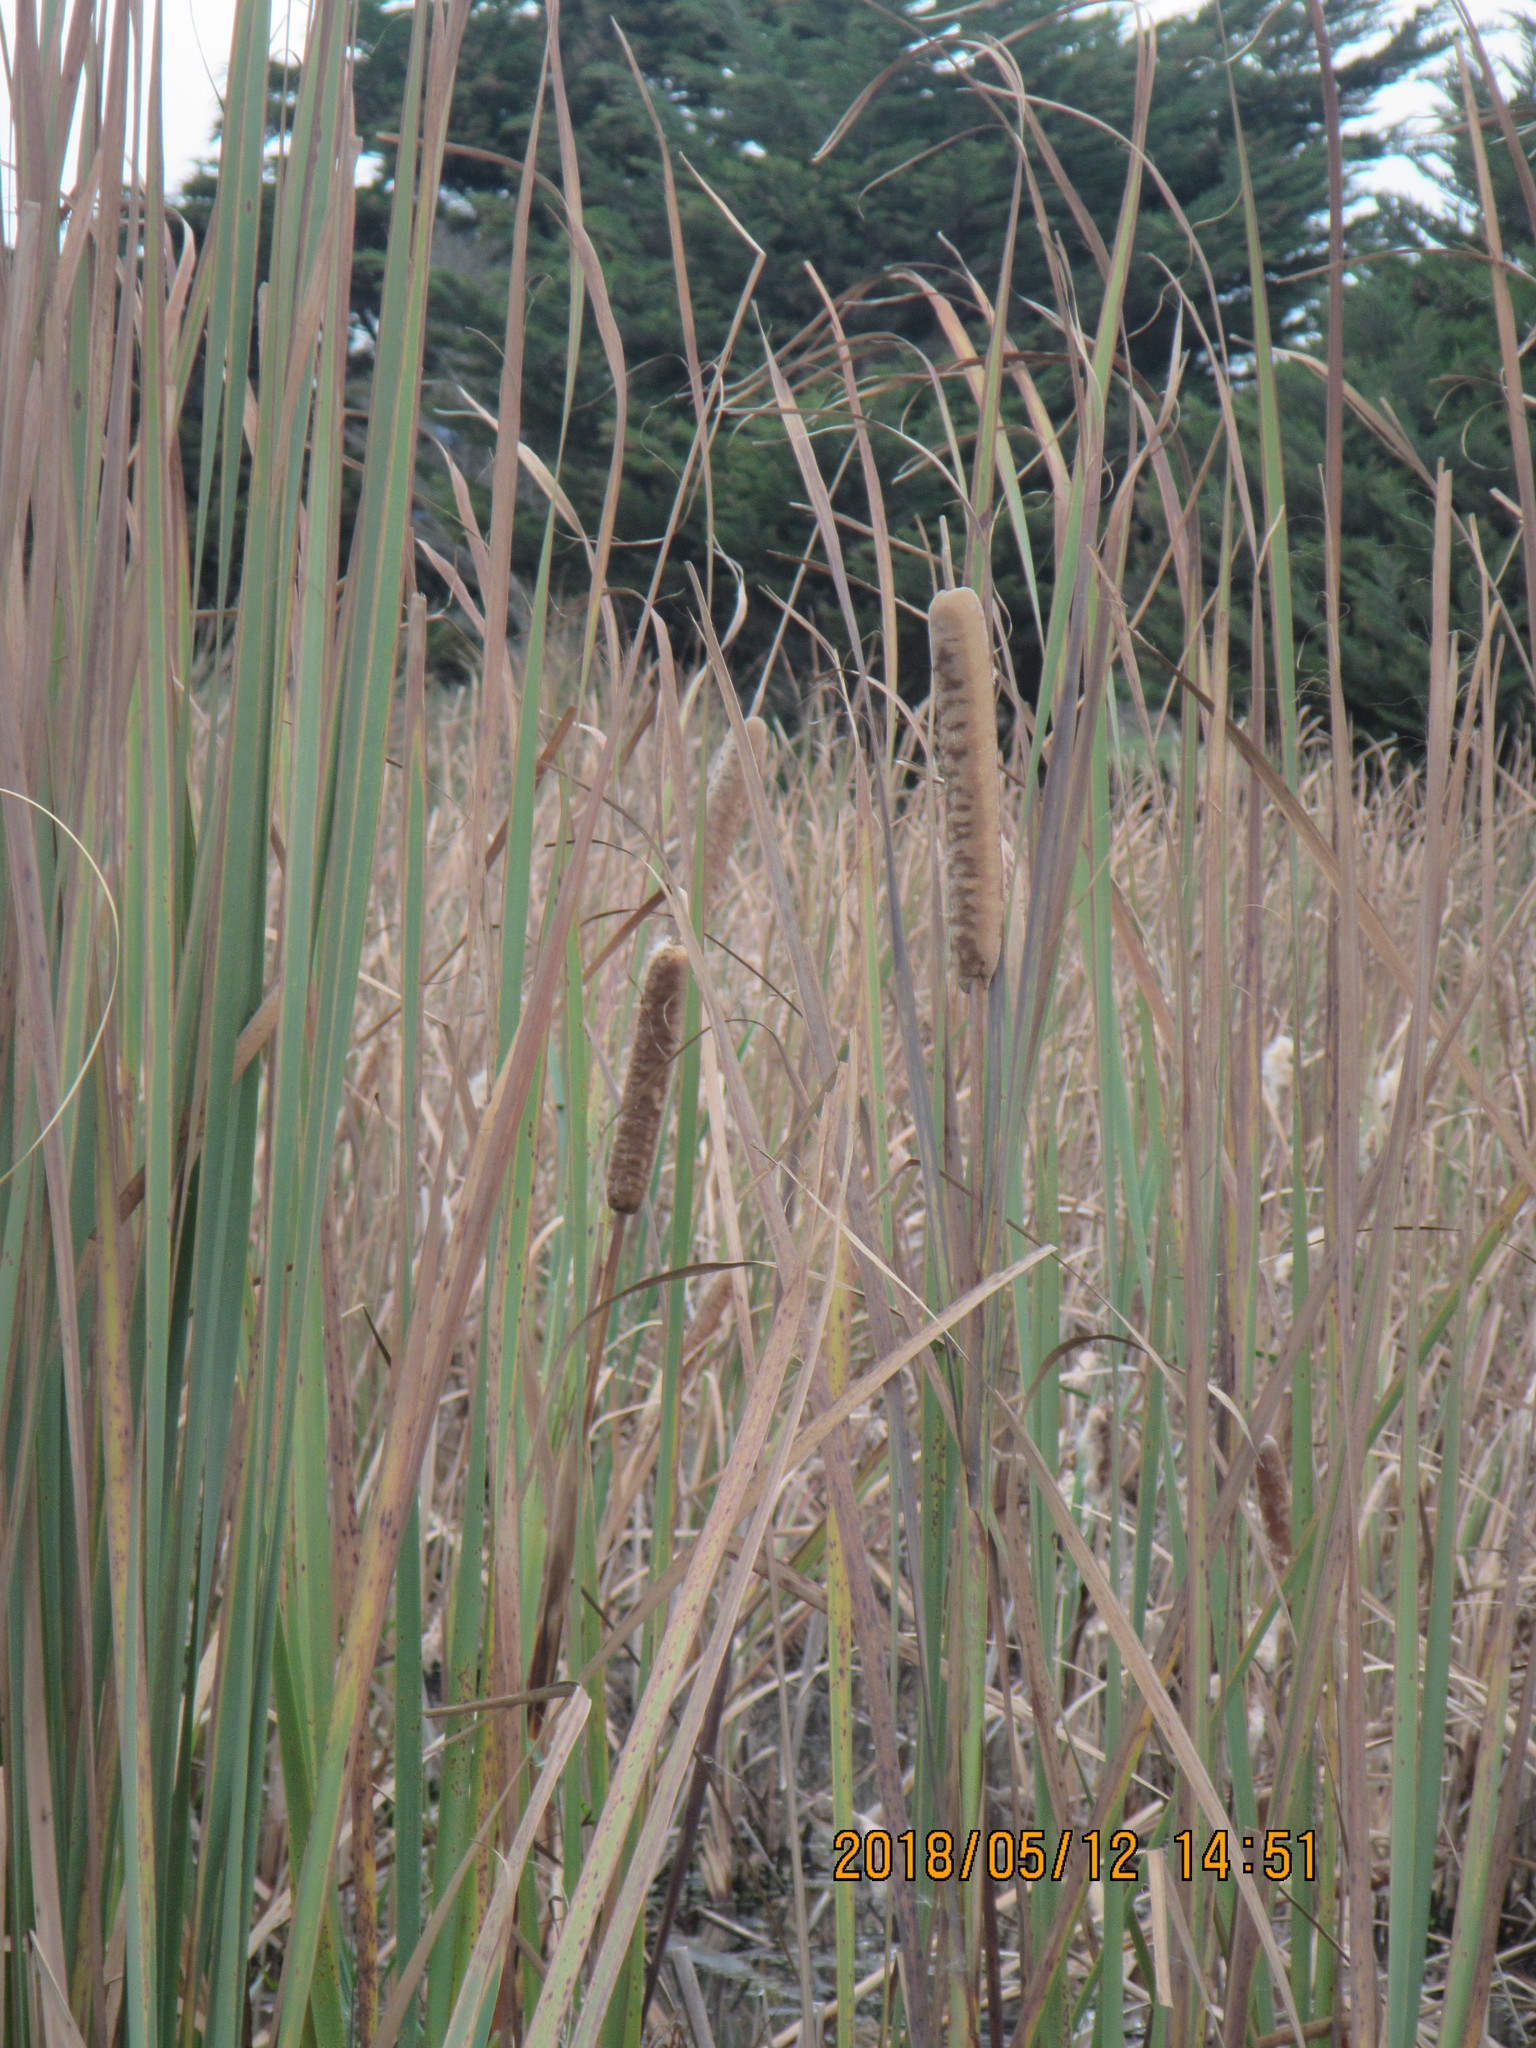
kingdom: Plantae
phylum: Tracheophyta
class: Liliopsida
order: Poales
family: Typhaceae
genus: Typha
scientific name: Typha orientalis
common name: Bullrush
